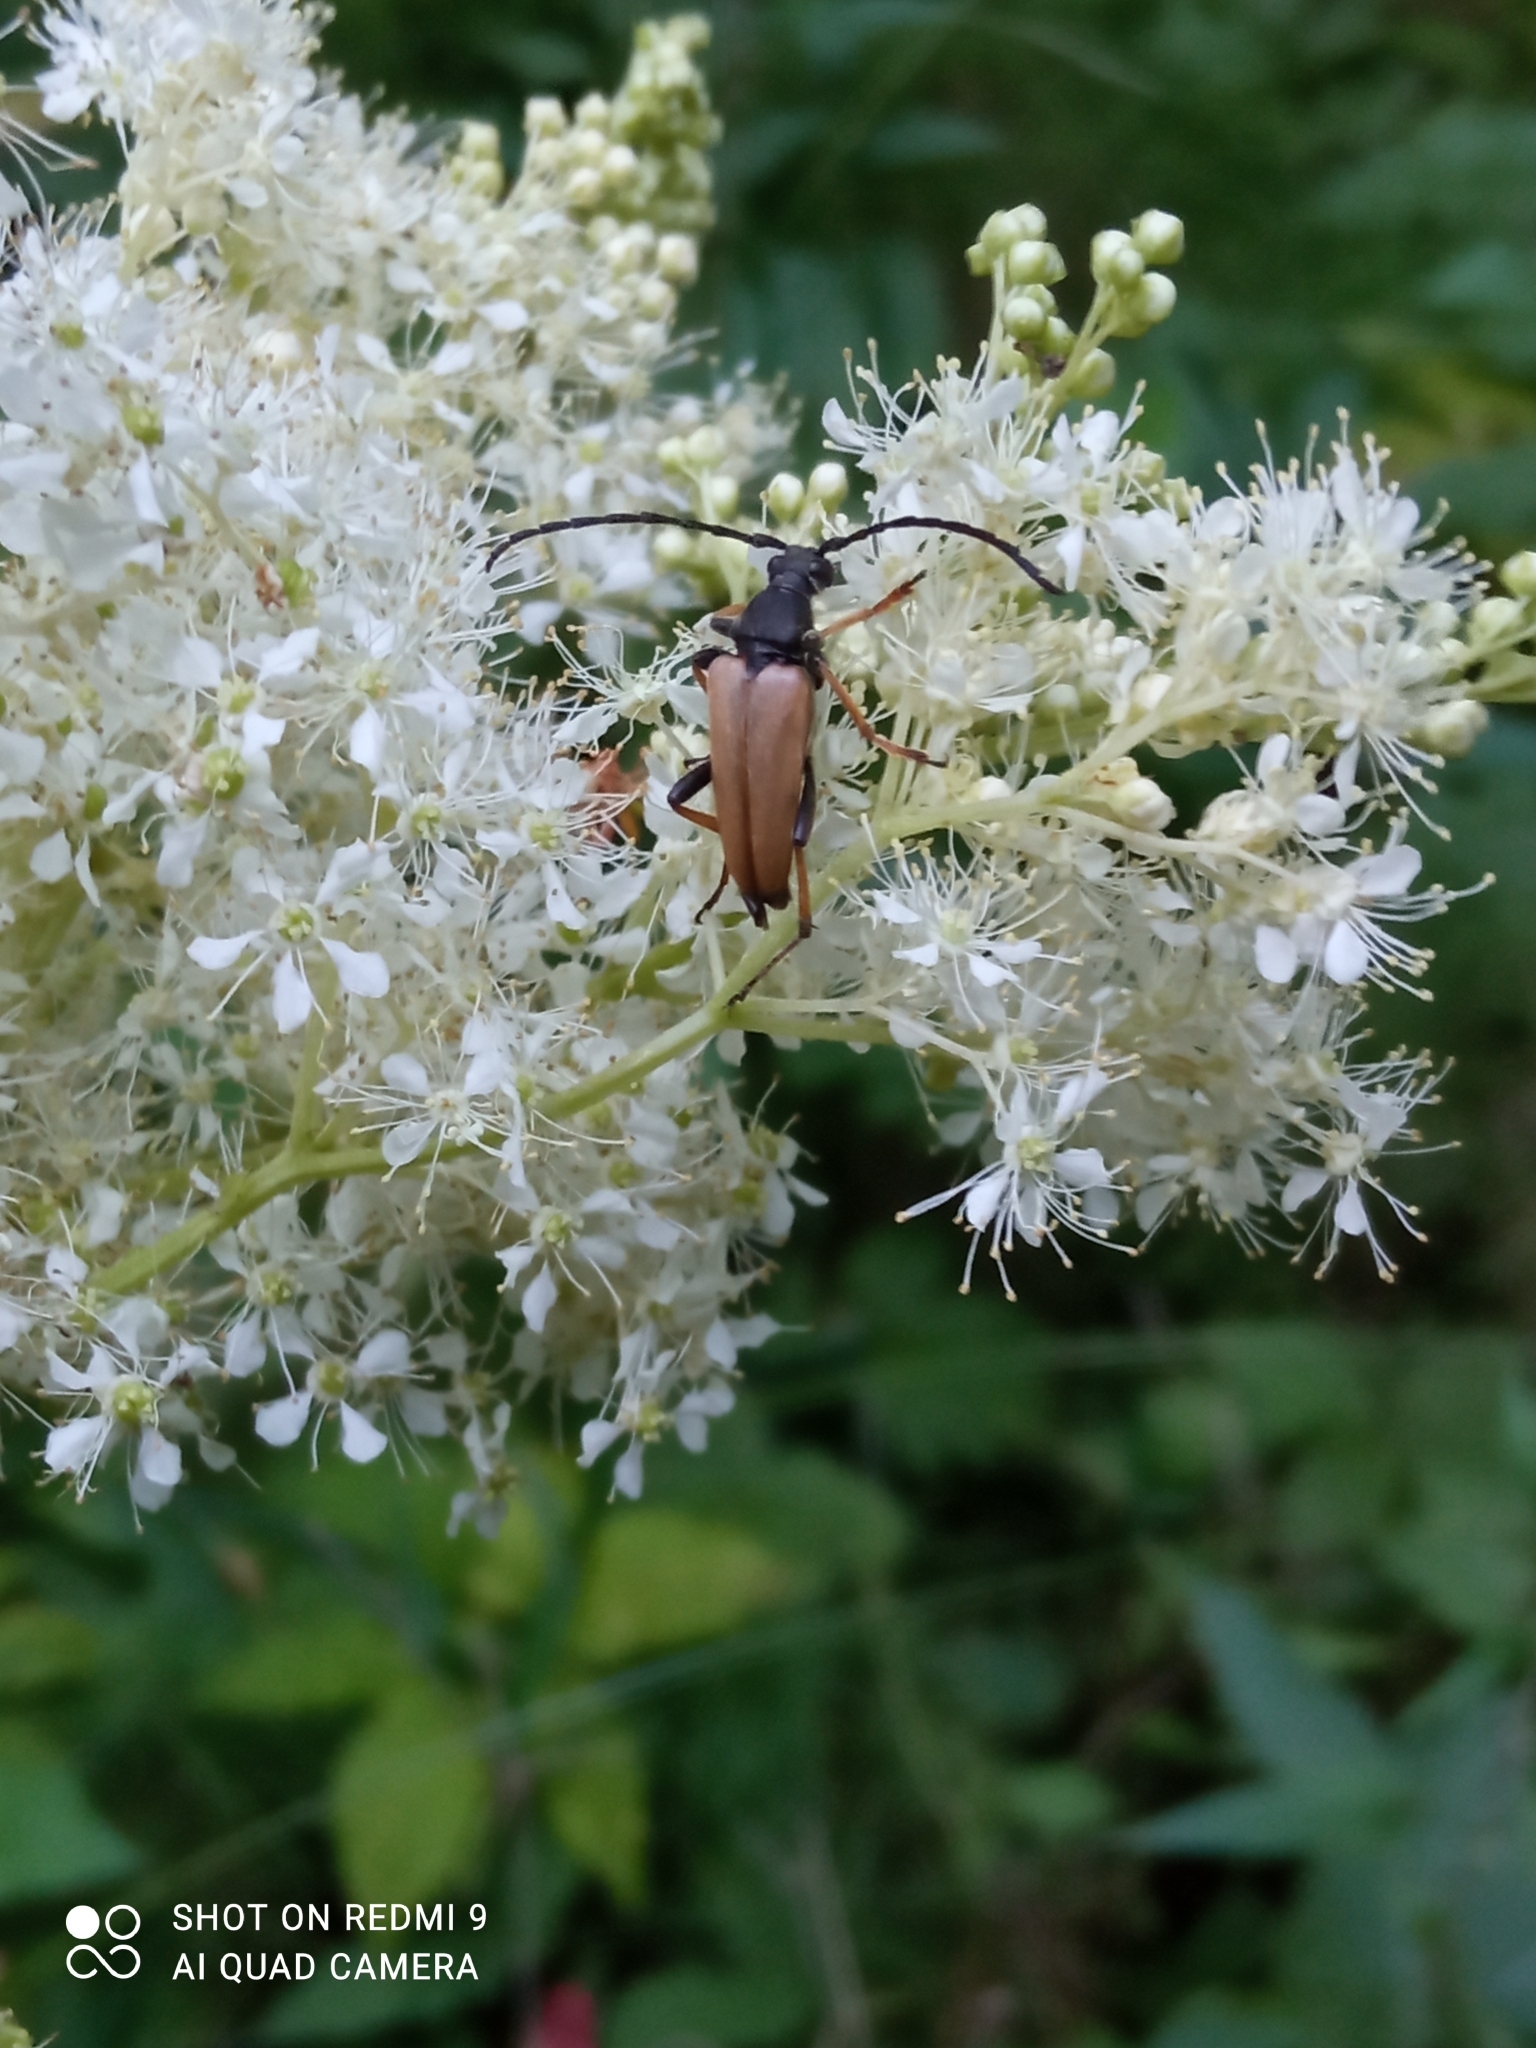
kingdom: Animalia
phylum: Arthropoda
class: Insecta
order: Coleoptera
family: Cerambycidae
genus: Stictoleptura
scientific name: Stictoleptura rubra
